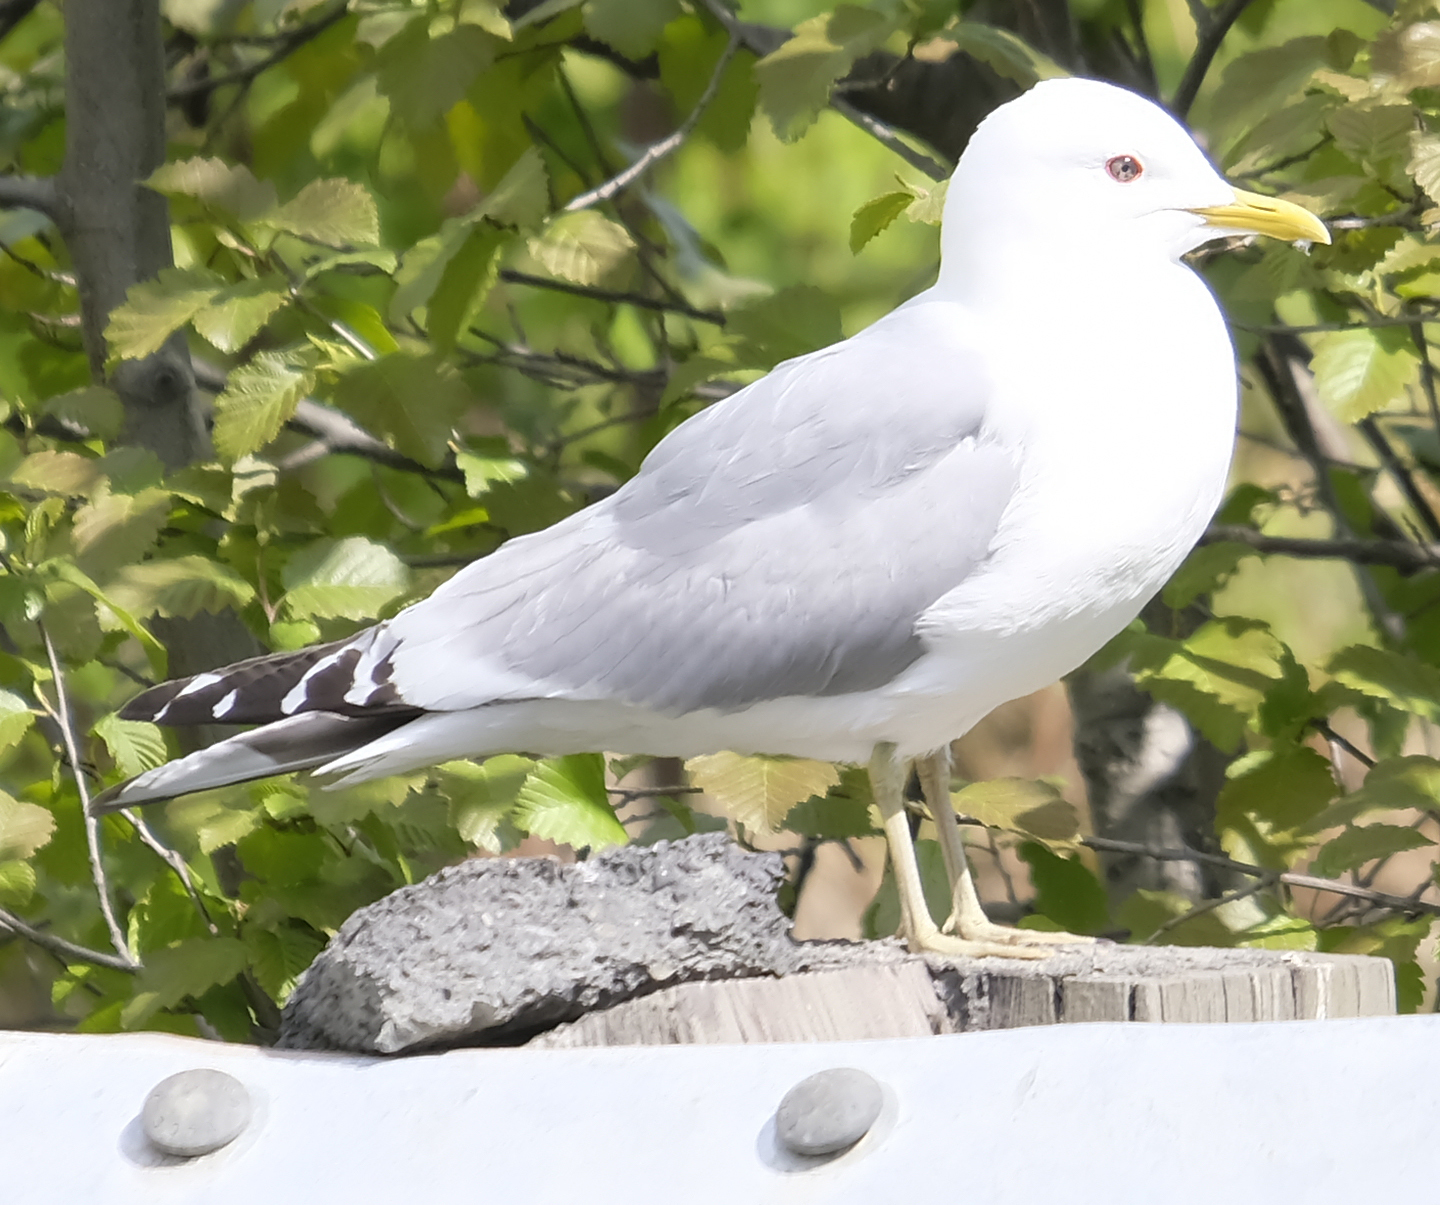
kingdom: Animalia
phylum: Chordata
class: Aves
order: Charadriiformes
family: Laridae
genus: Larus
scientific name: Larus brachyrhynchus
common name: Short-billed gull
